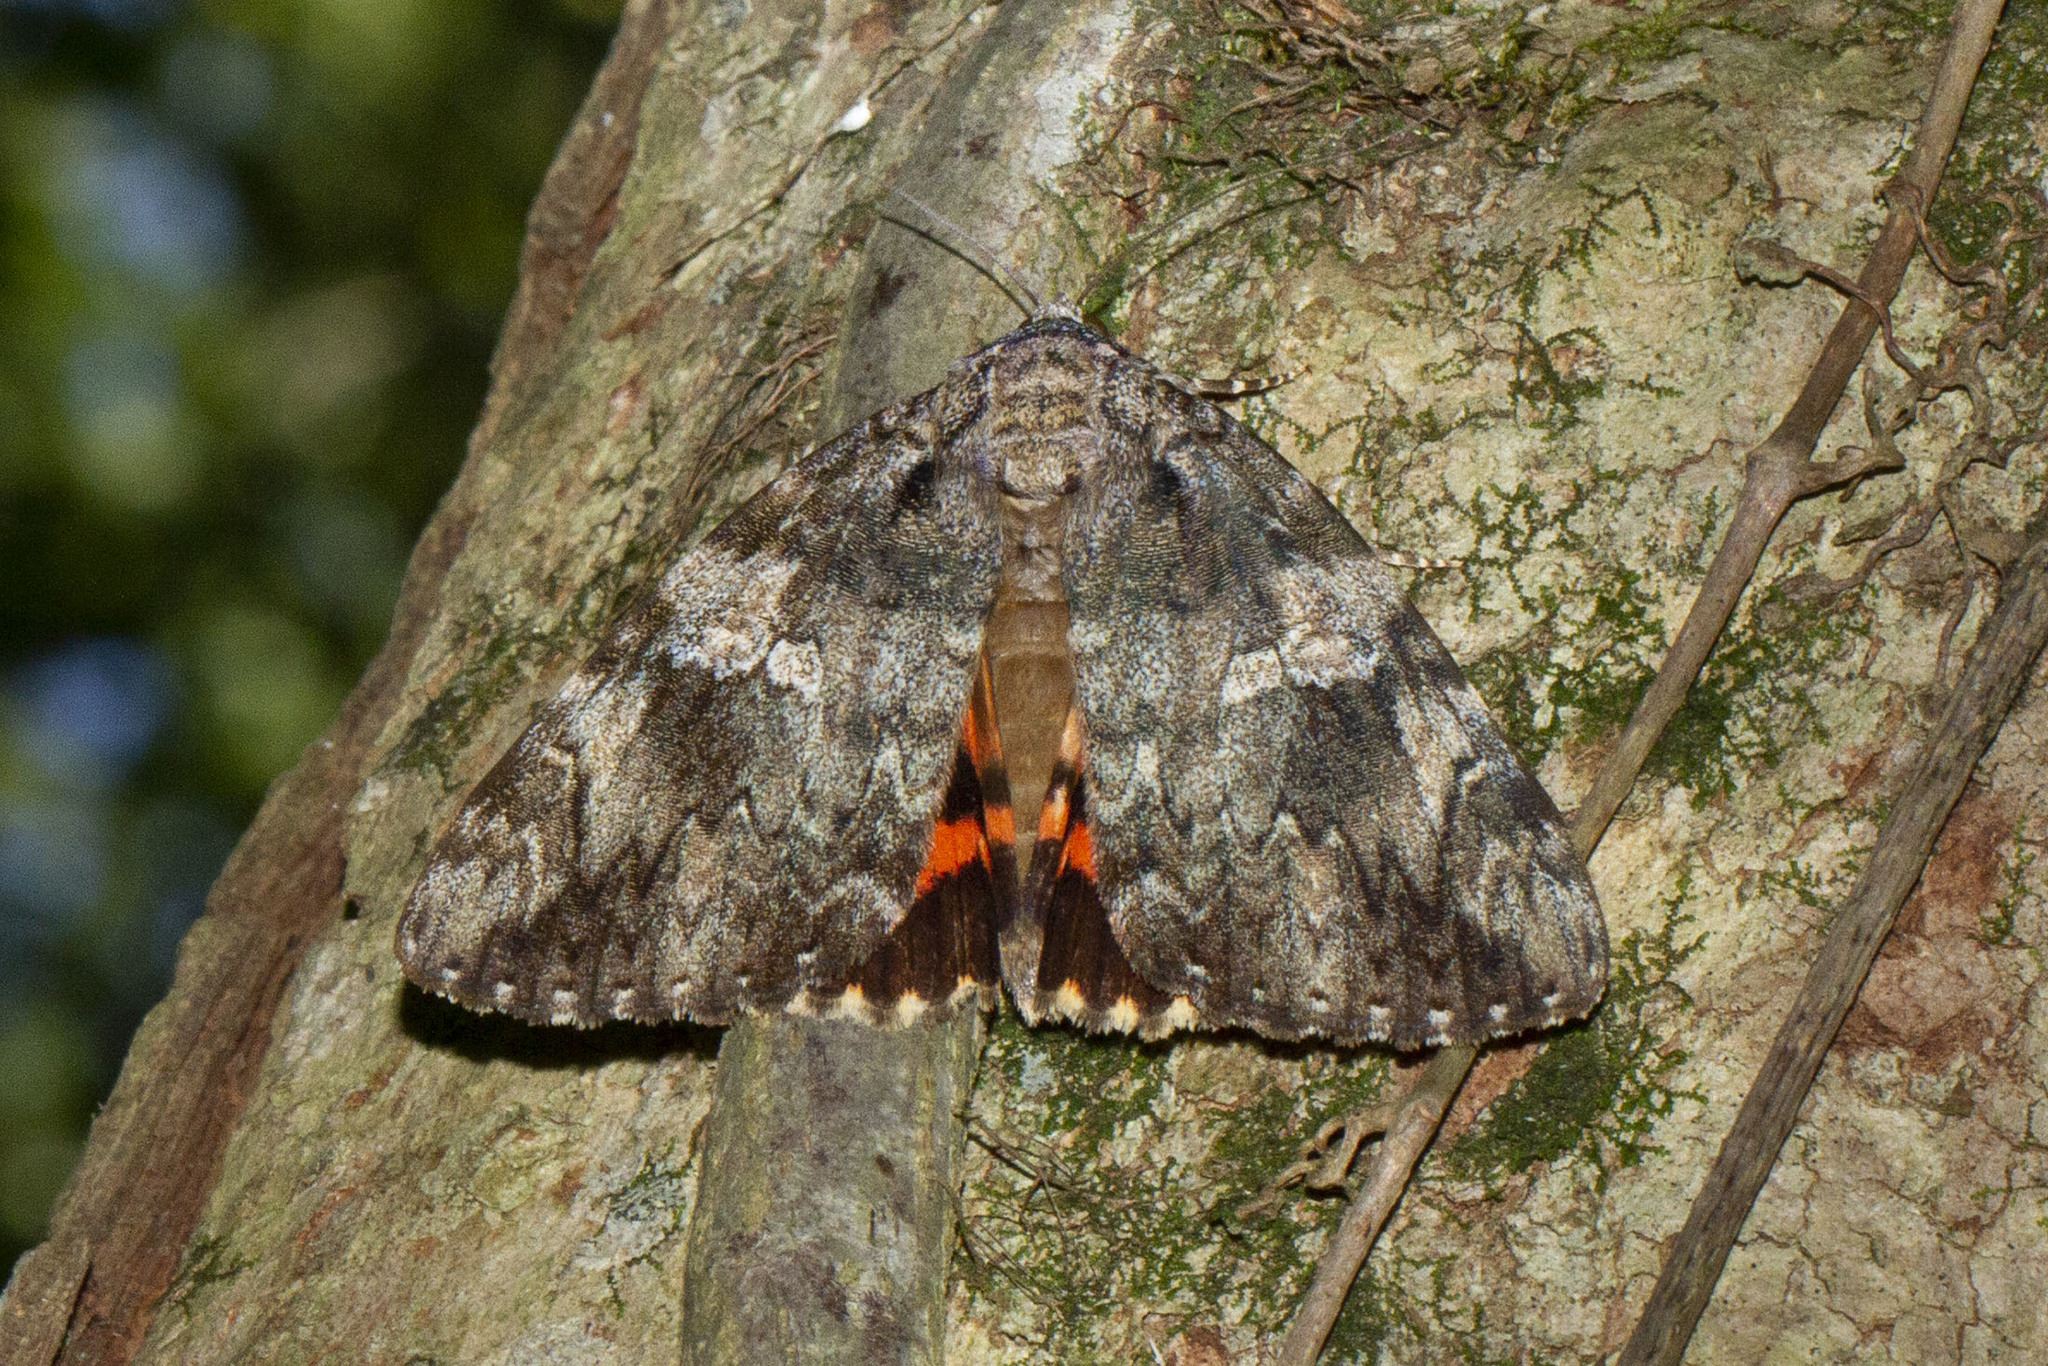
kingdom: Animalia
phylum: Arthropoda
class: Insecta
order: Lepidoptera
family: Erebidae
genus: Catocala
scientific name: Catocala ilia
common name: Ilia underwing
